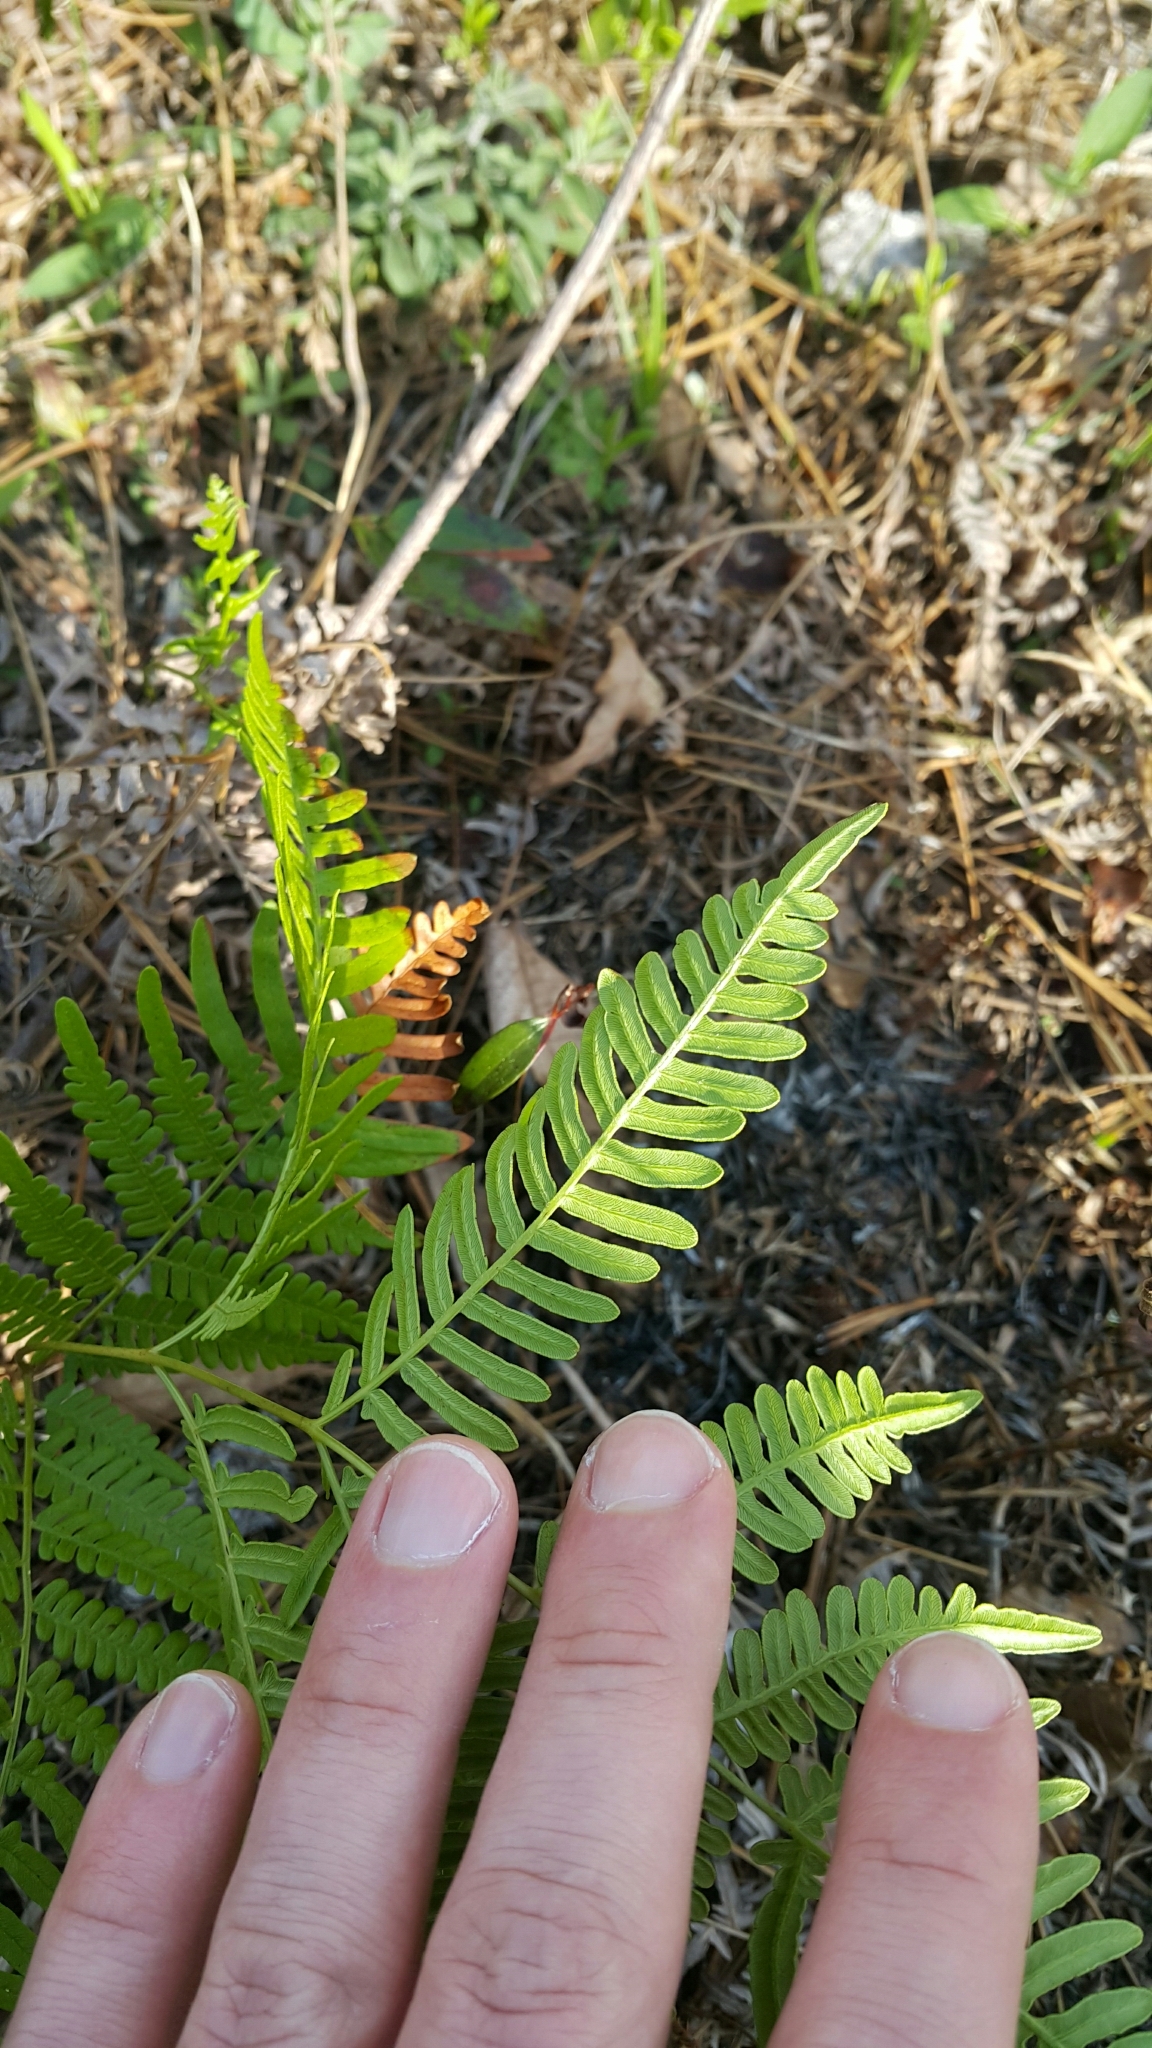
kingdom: Plantae
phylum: Tracheophyta
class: Polypodiopsida
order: Polypodiales
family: Dennstaedtiaceae
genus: Pteridium
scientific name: Pteridium aquilinum
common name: Bracken
